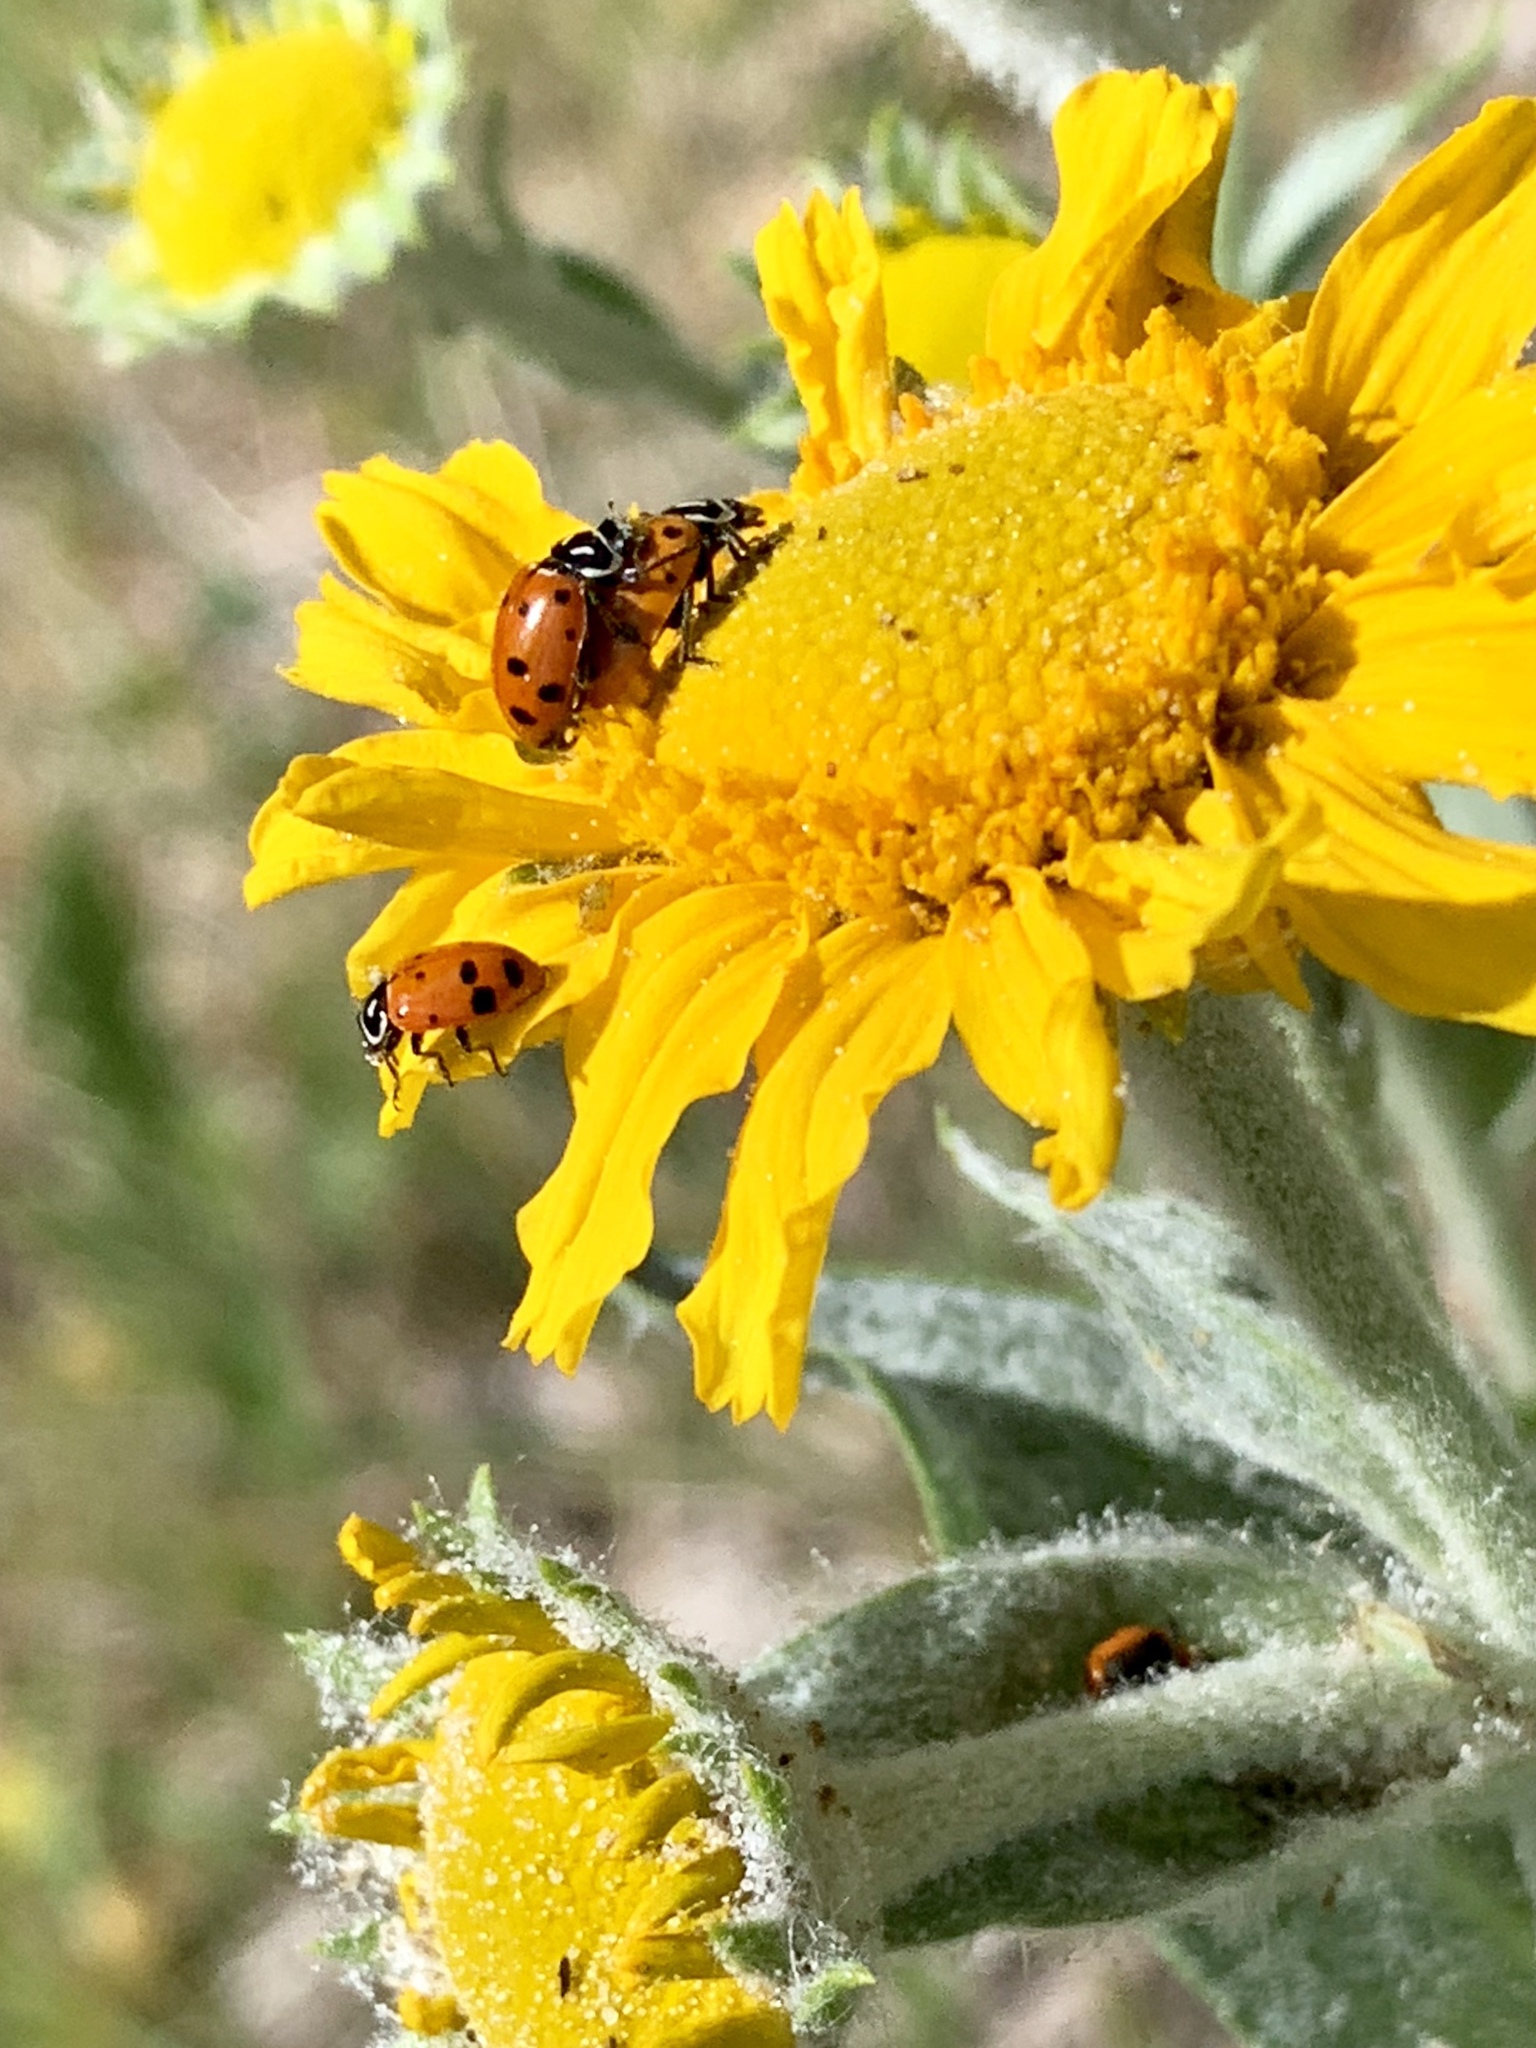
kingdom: Animalia
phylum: Arthropoda
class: Insecta
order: Coleoptera
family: Coccinellidae
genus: Hippodamia
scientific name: Hippodamia convergens
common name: Convergent lady beetle
